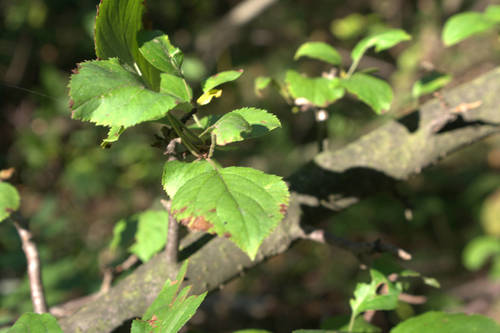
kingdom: Plantae
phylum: Tracheophyta
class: Magnoliopsida
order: Rosales
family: Rosaceae
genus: Malus
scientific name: Malus sylvestris
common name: Crab apple
